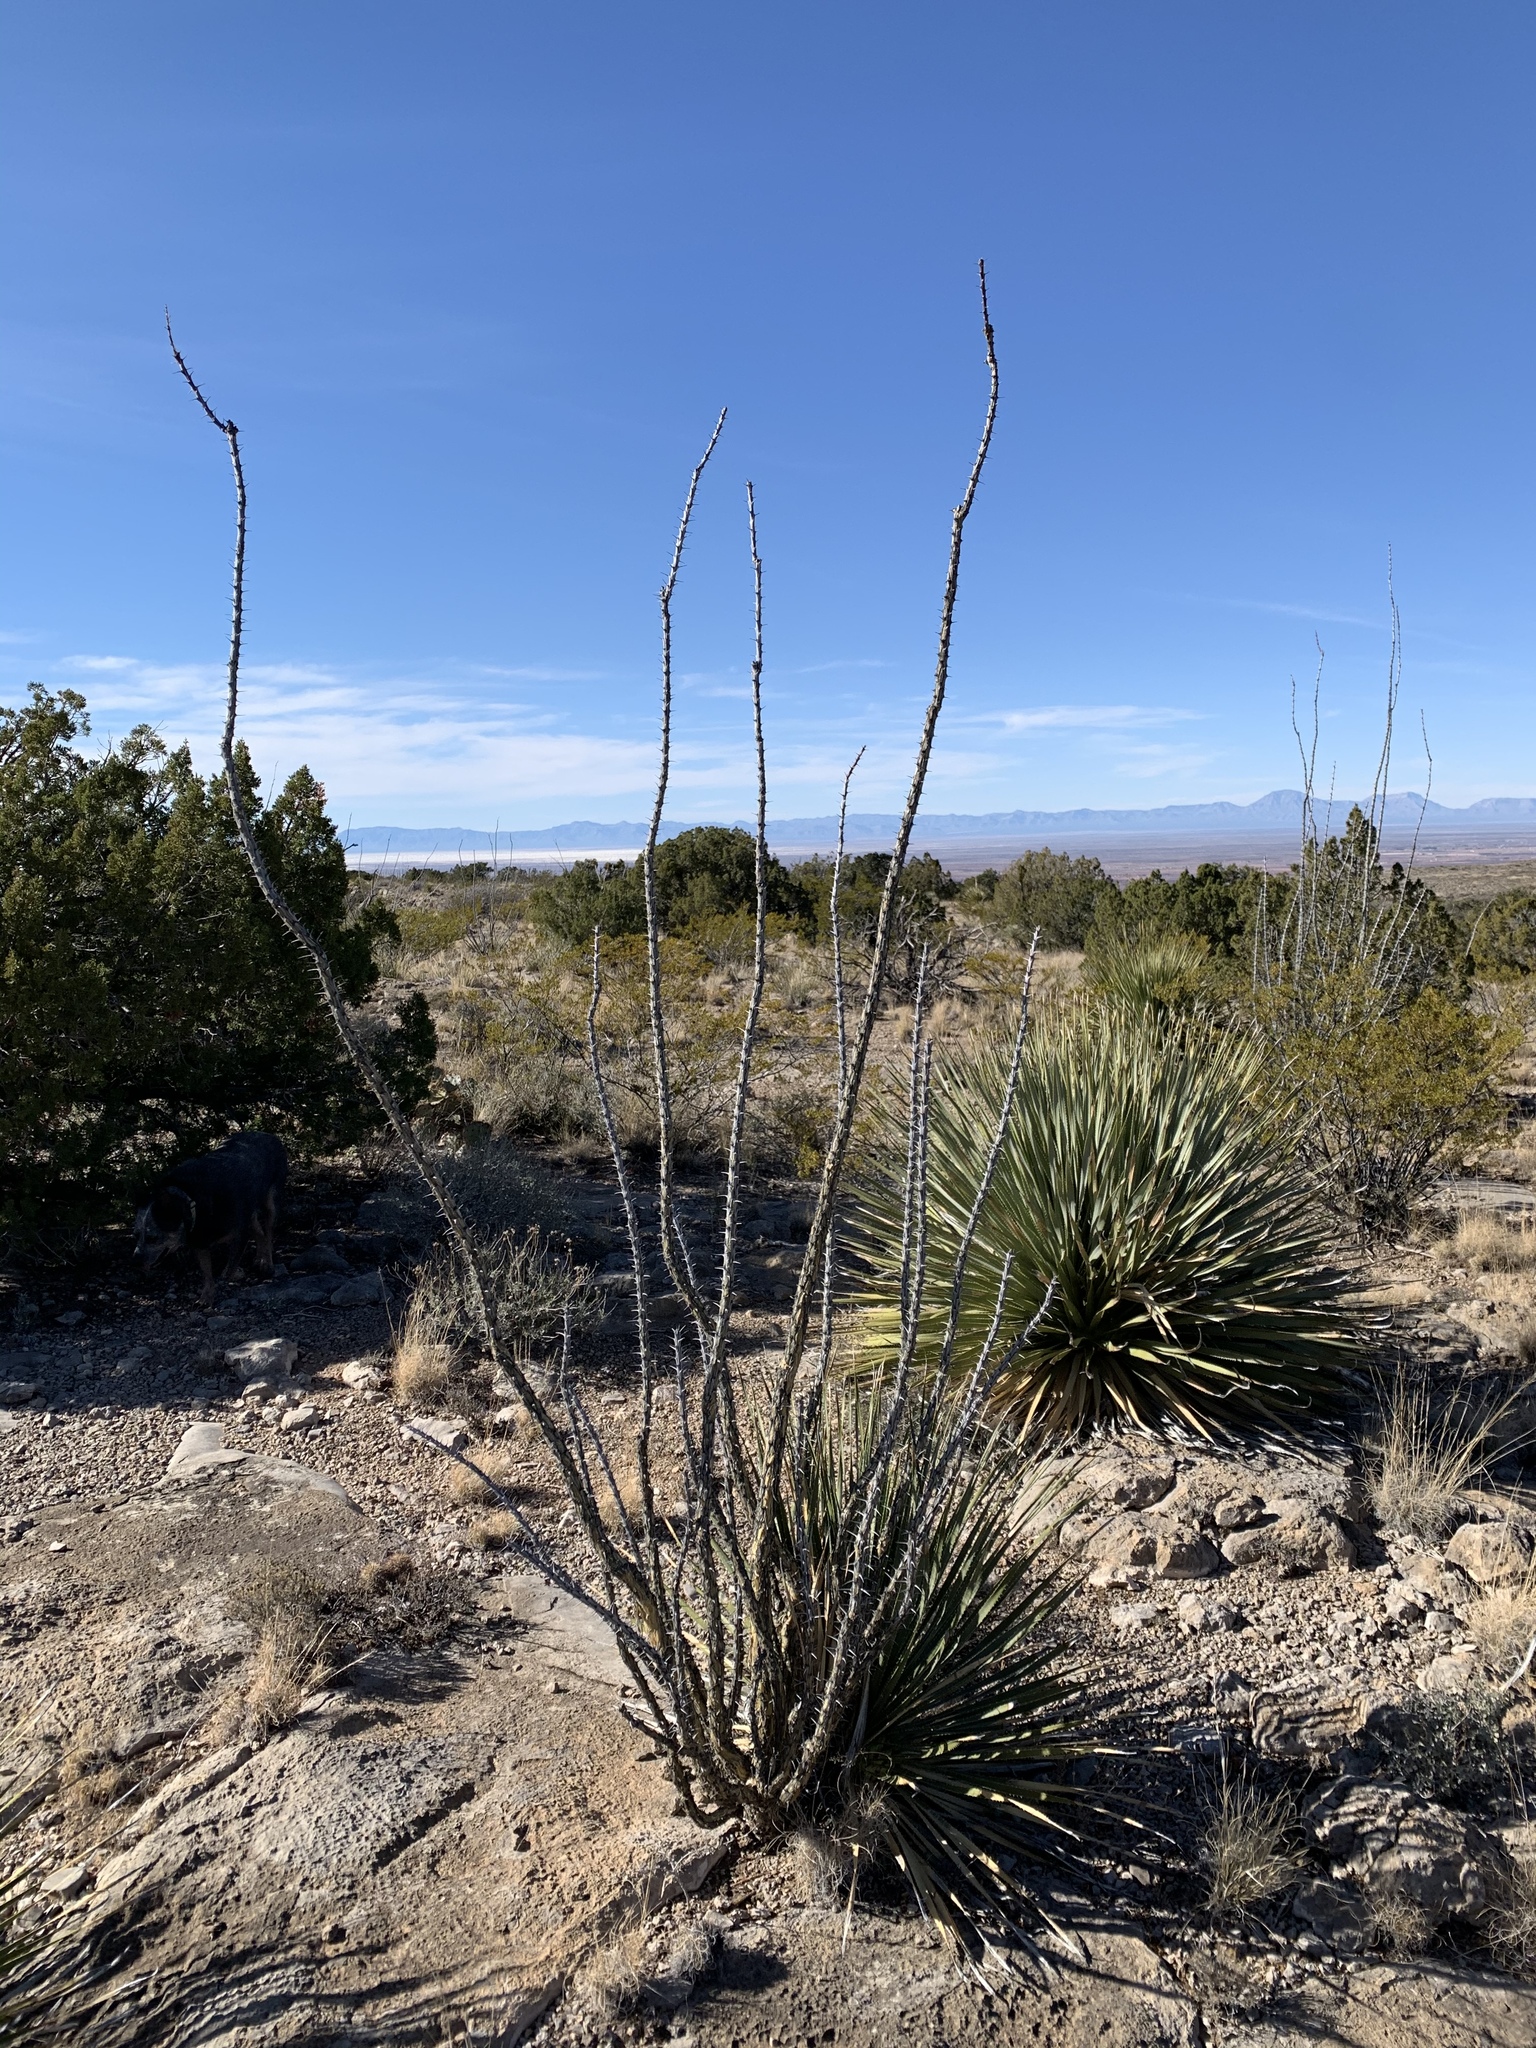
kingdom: Plantae
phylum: Tracheophyta
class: Magnoliopsida
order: Ericales
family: Fouquieriaceae
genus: Fouquieria
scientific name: Fouquieria splendens
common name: Vine-cactus
